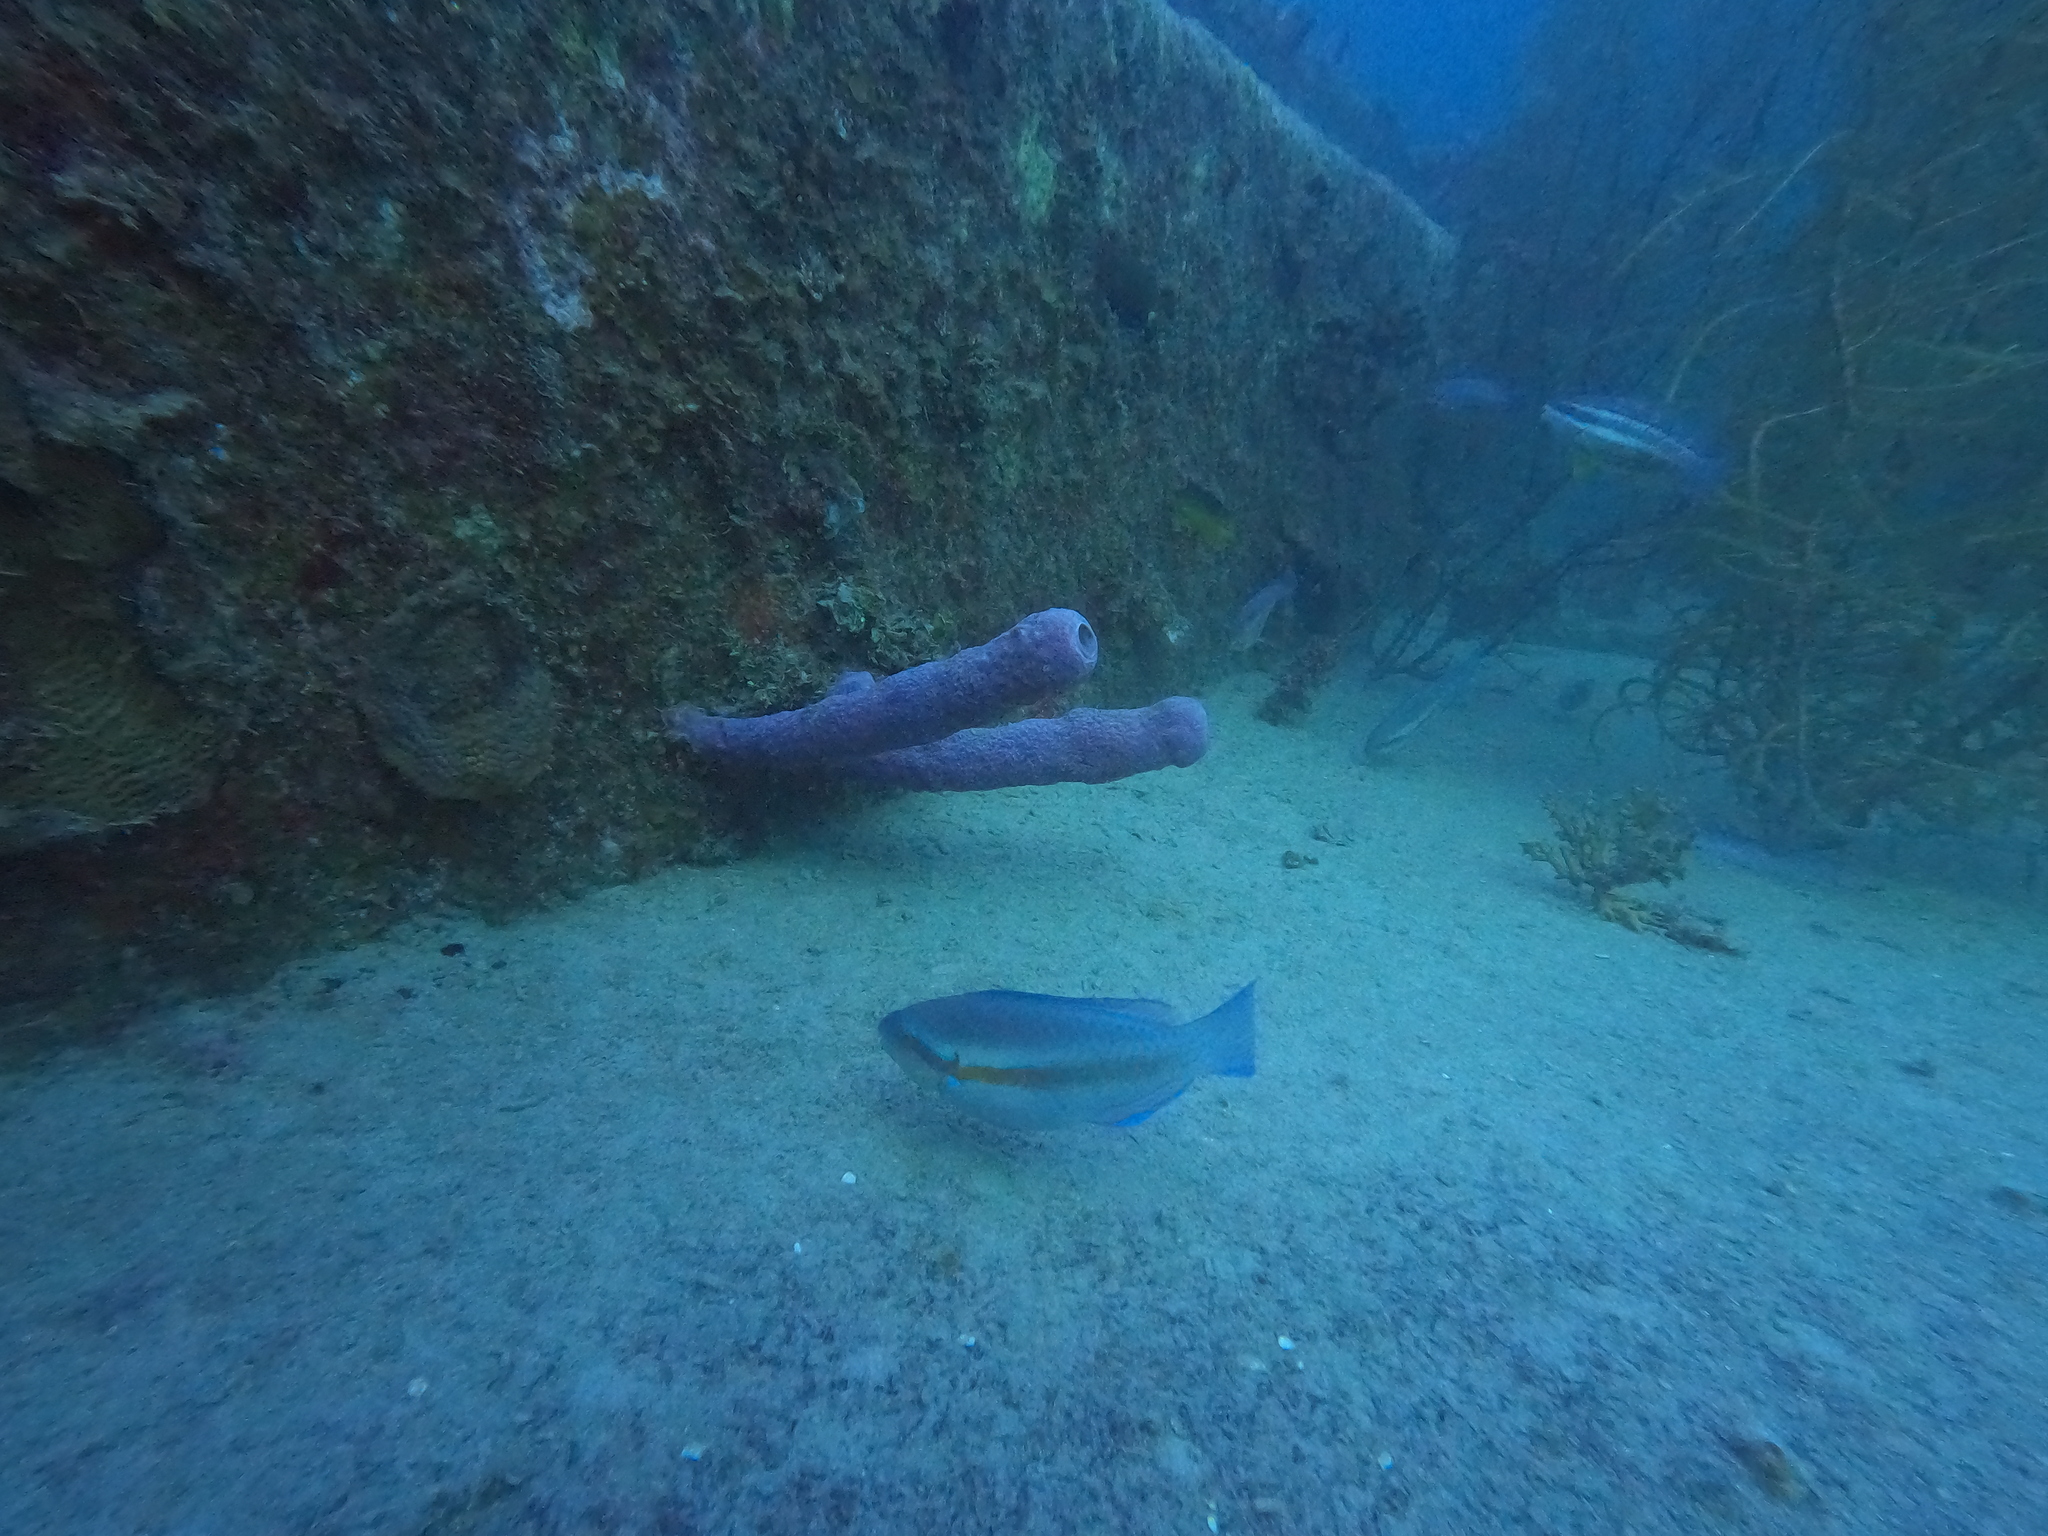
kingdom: Animalia
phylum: Chordata
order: Perciformes
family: Scaridae
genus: Scarus
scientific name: Scarus iseri
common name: Striped parrotfish
